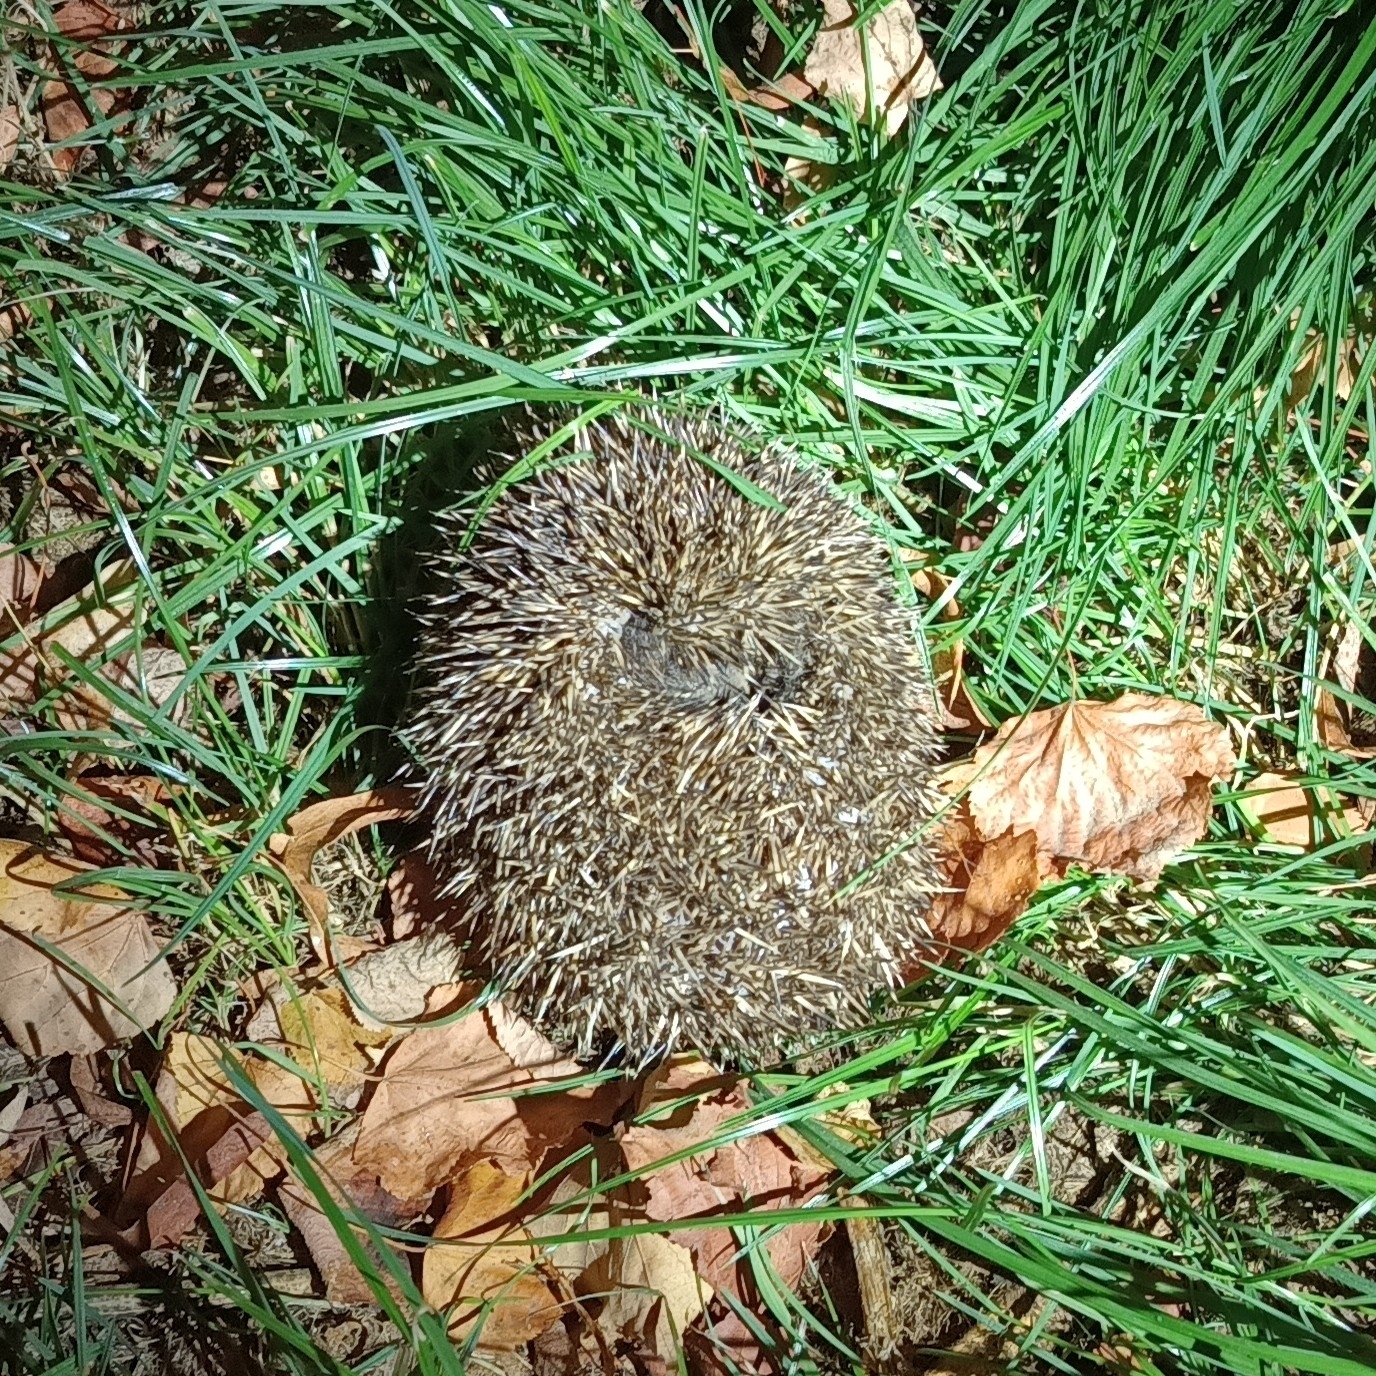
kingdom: Animalia
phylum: Chordata
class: Mammalia
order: Erinaceomorpha
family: Erinaceidae
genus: Erinaceus
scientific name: Erinaceus roumanicus
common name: Northern white-breasted hedgehog
